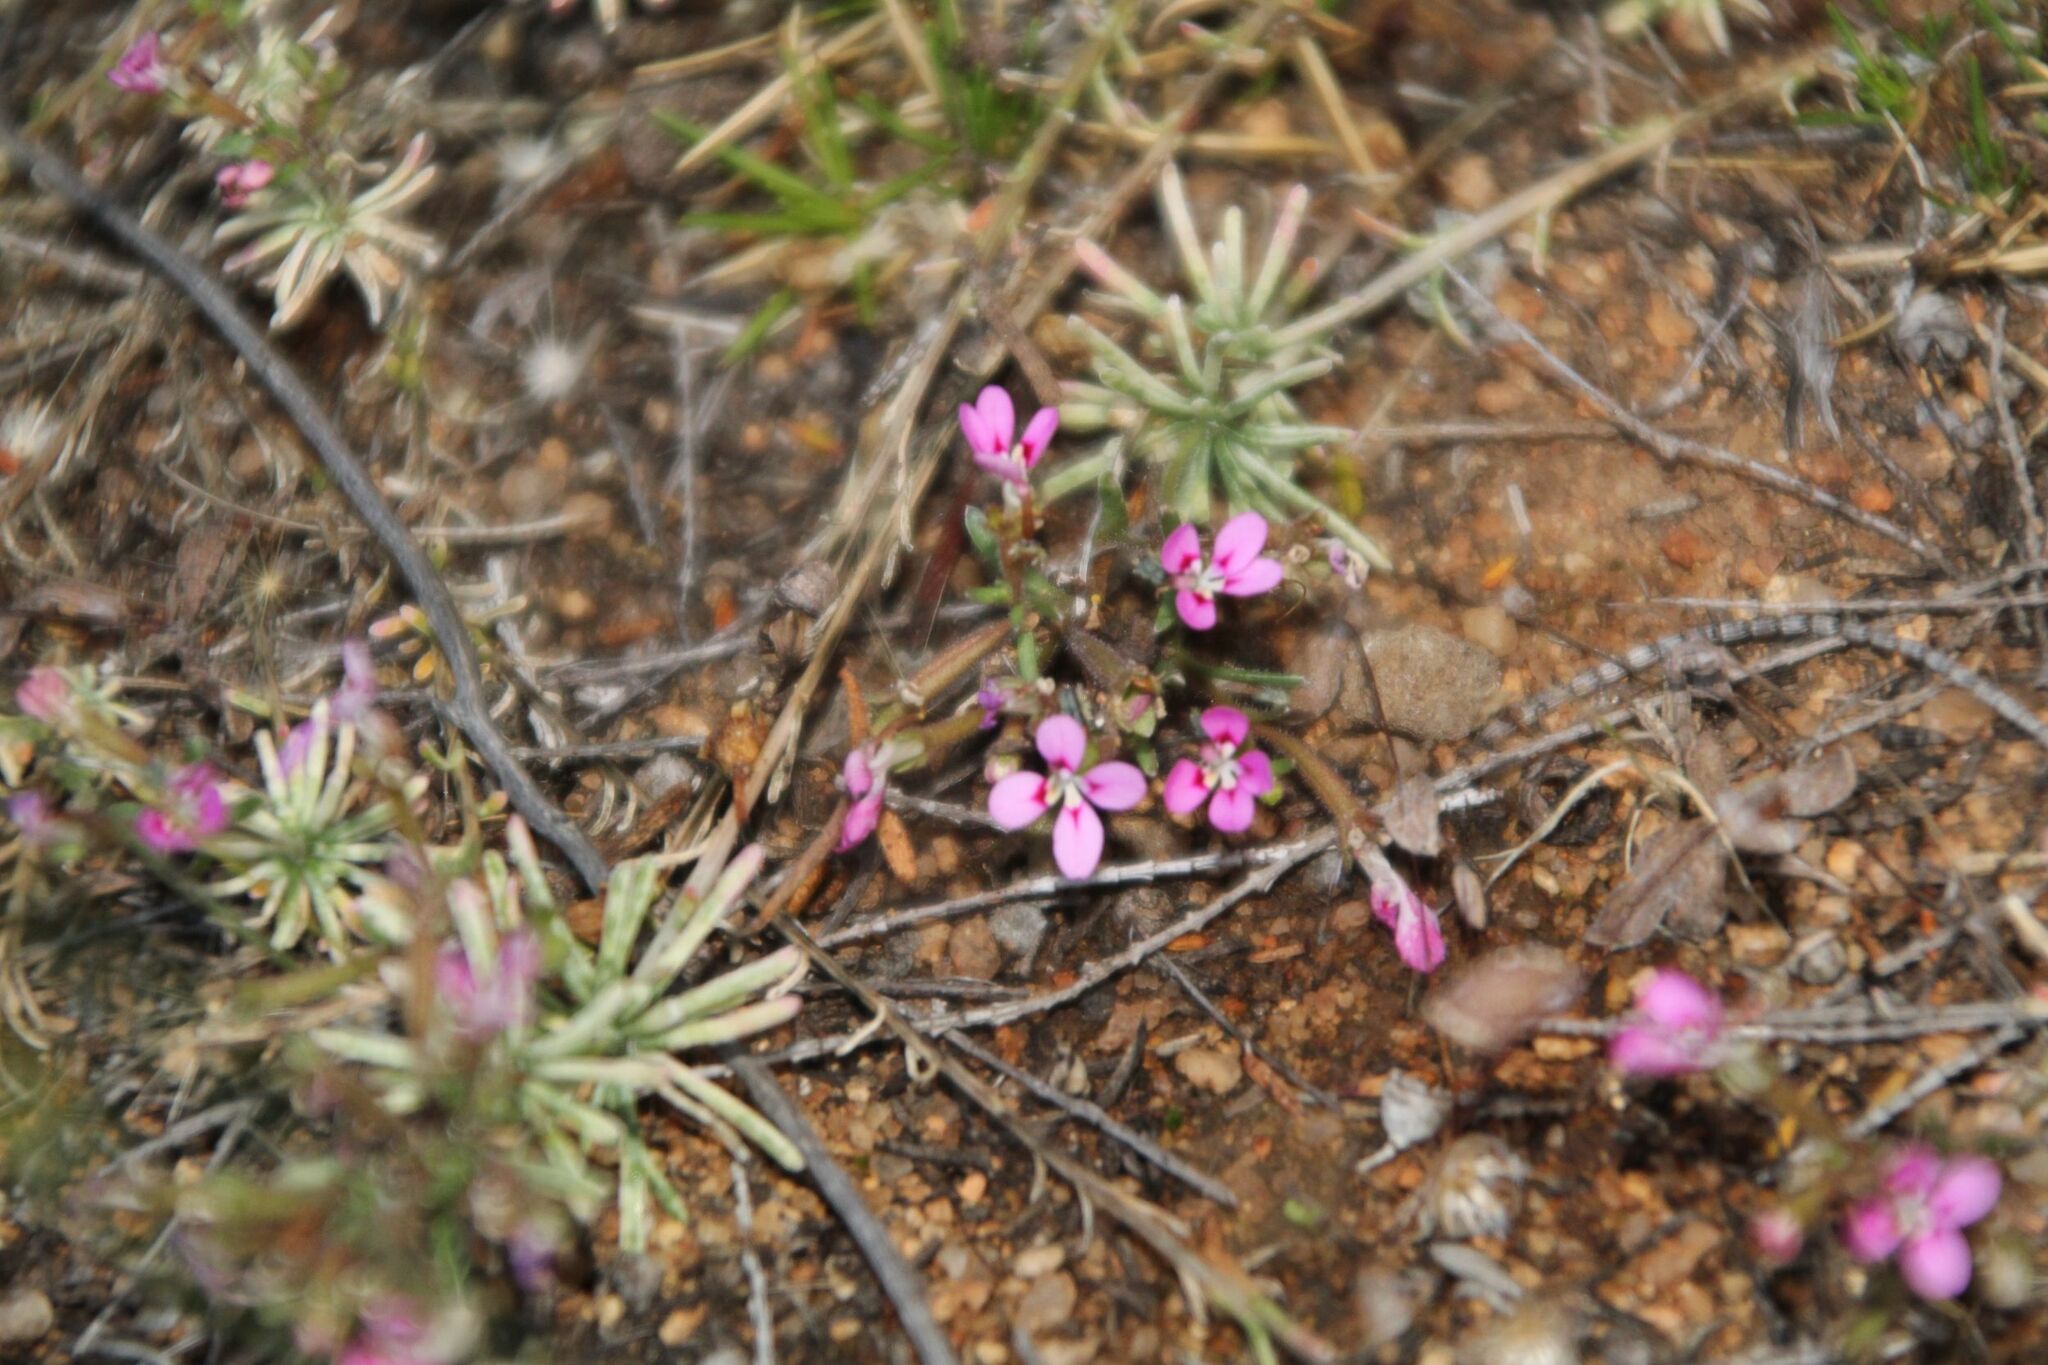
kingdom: Plantae
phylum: Tracheophyta
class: Magnoliopsida
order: Asterales
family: Stylidiaceae
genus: Stylidium
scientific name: Stylidium dielsianum
